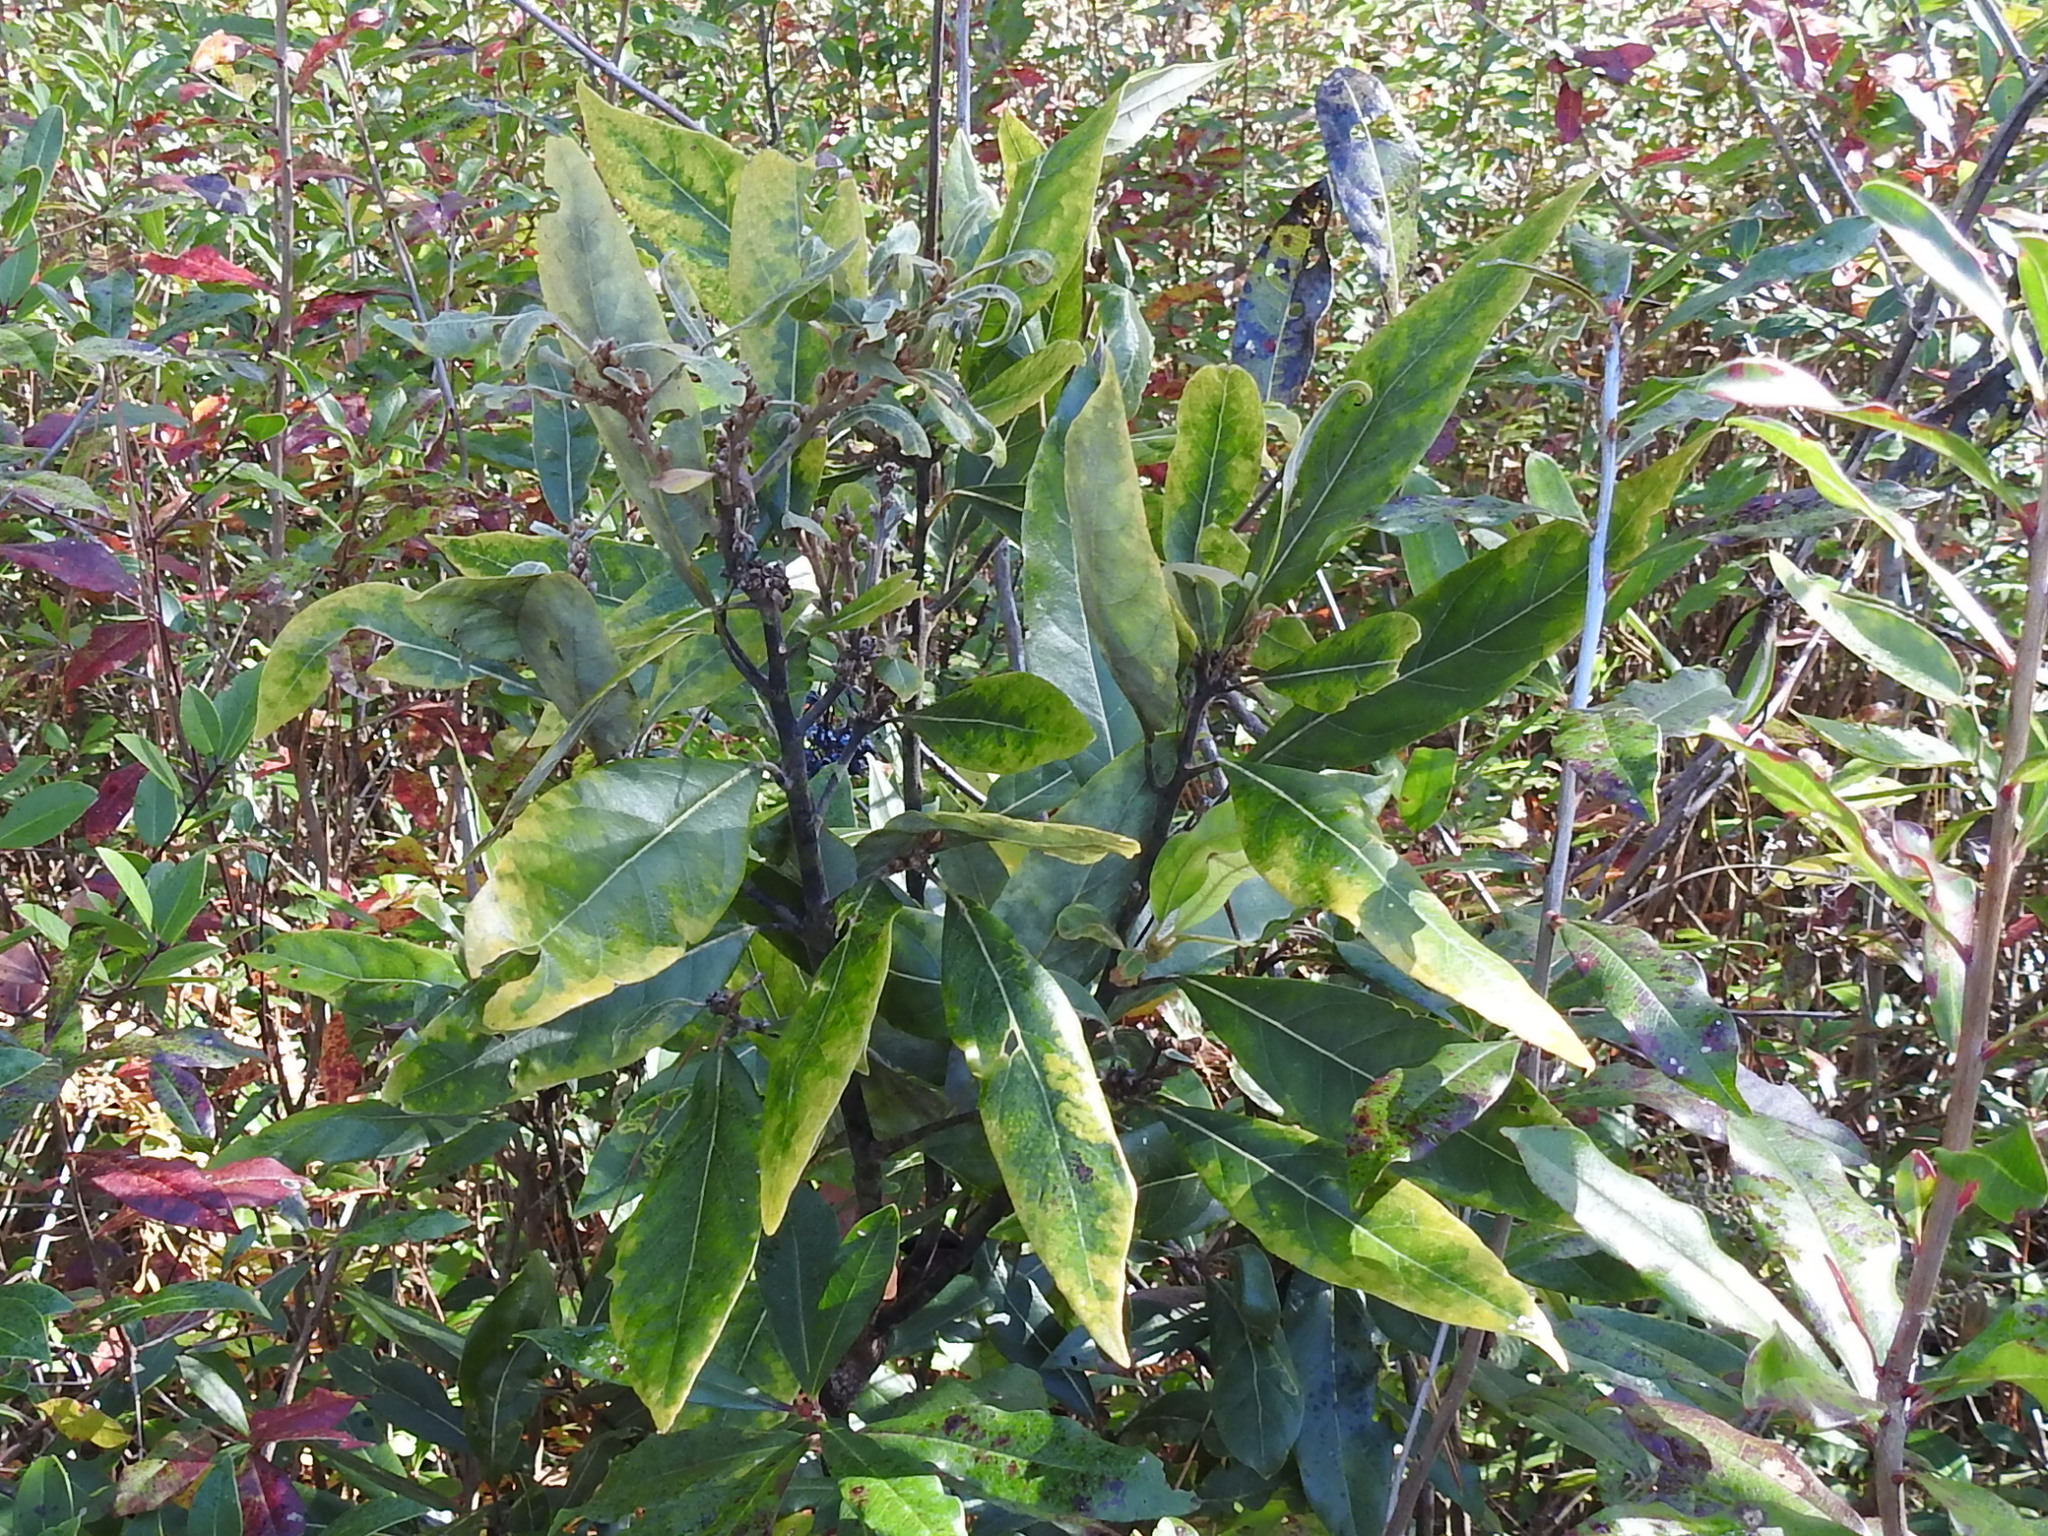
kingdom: Plantae
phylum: Tracheophyta
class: Magnoliopsida
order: Laurales
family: Lauraceae
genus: Persea
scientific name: Persea borbonia
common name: Redbay
